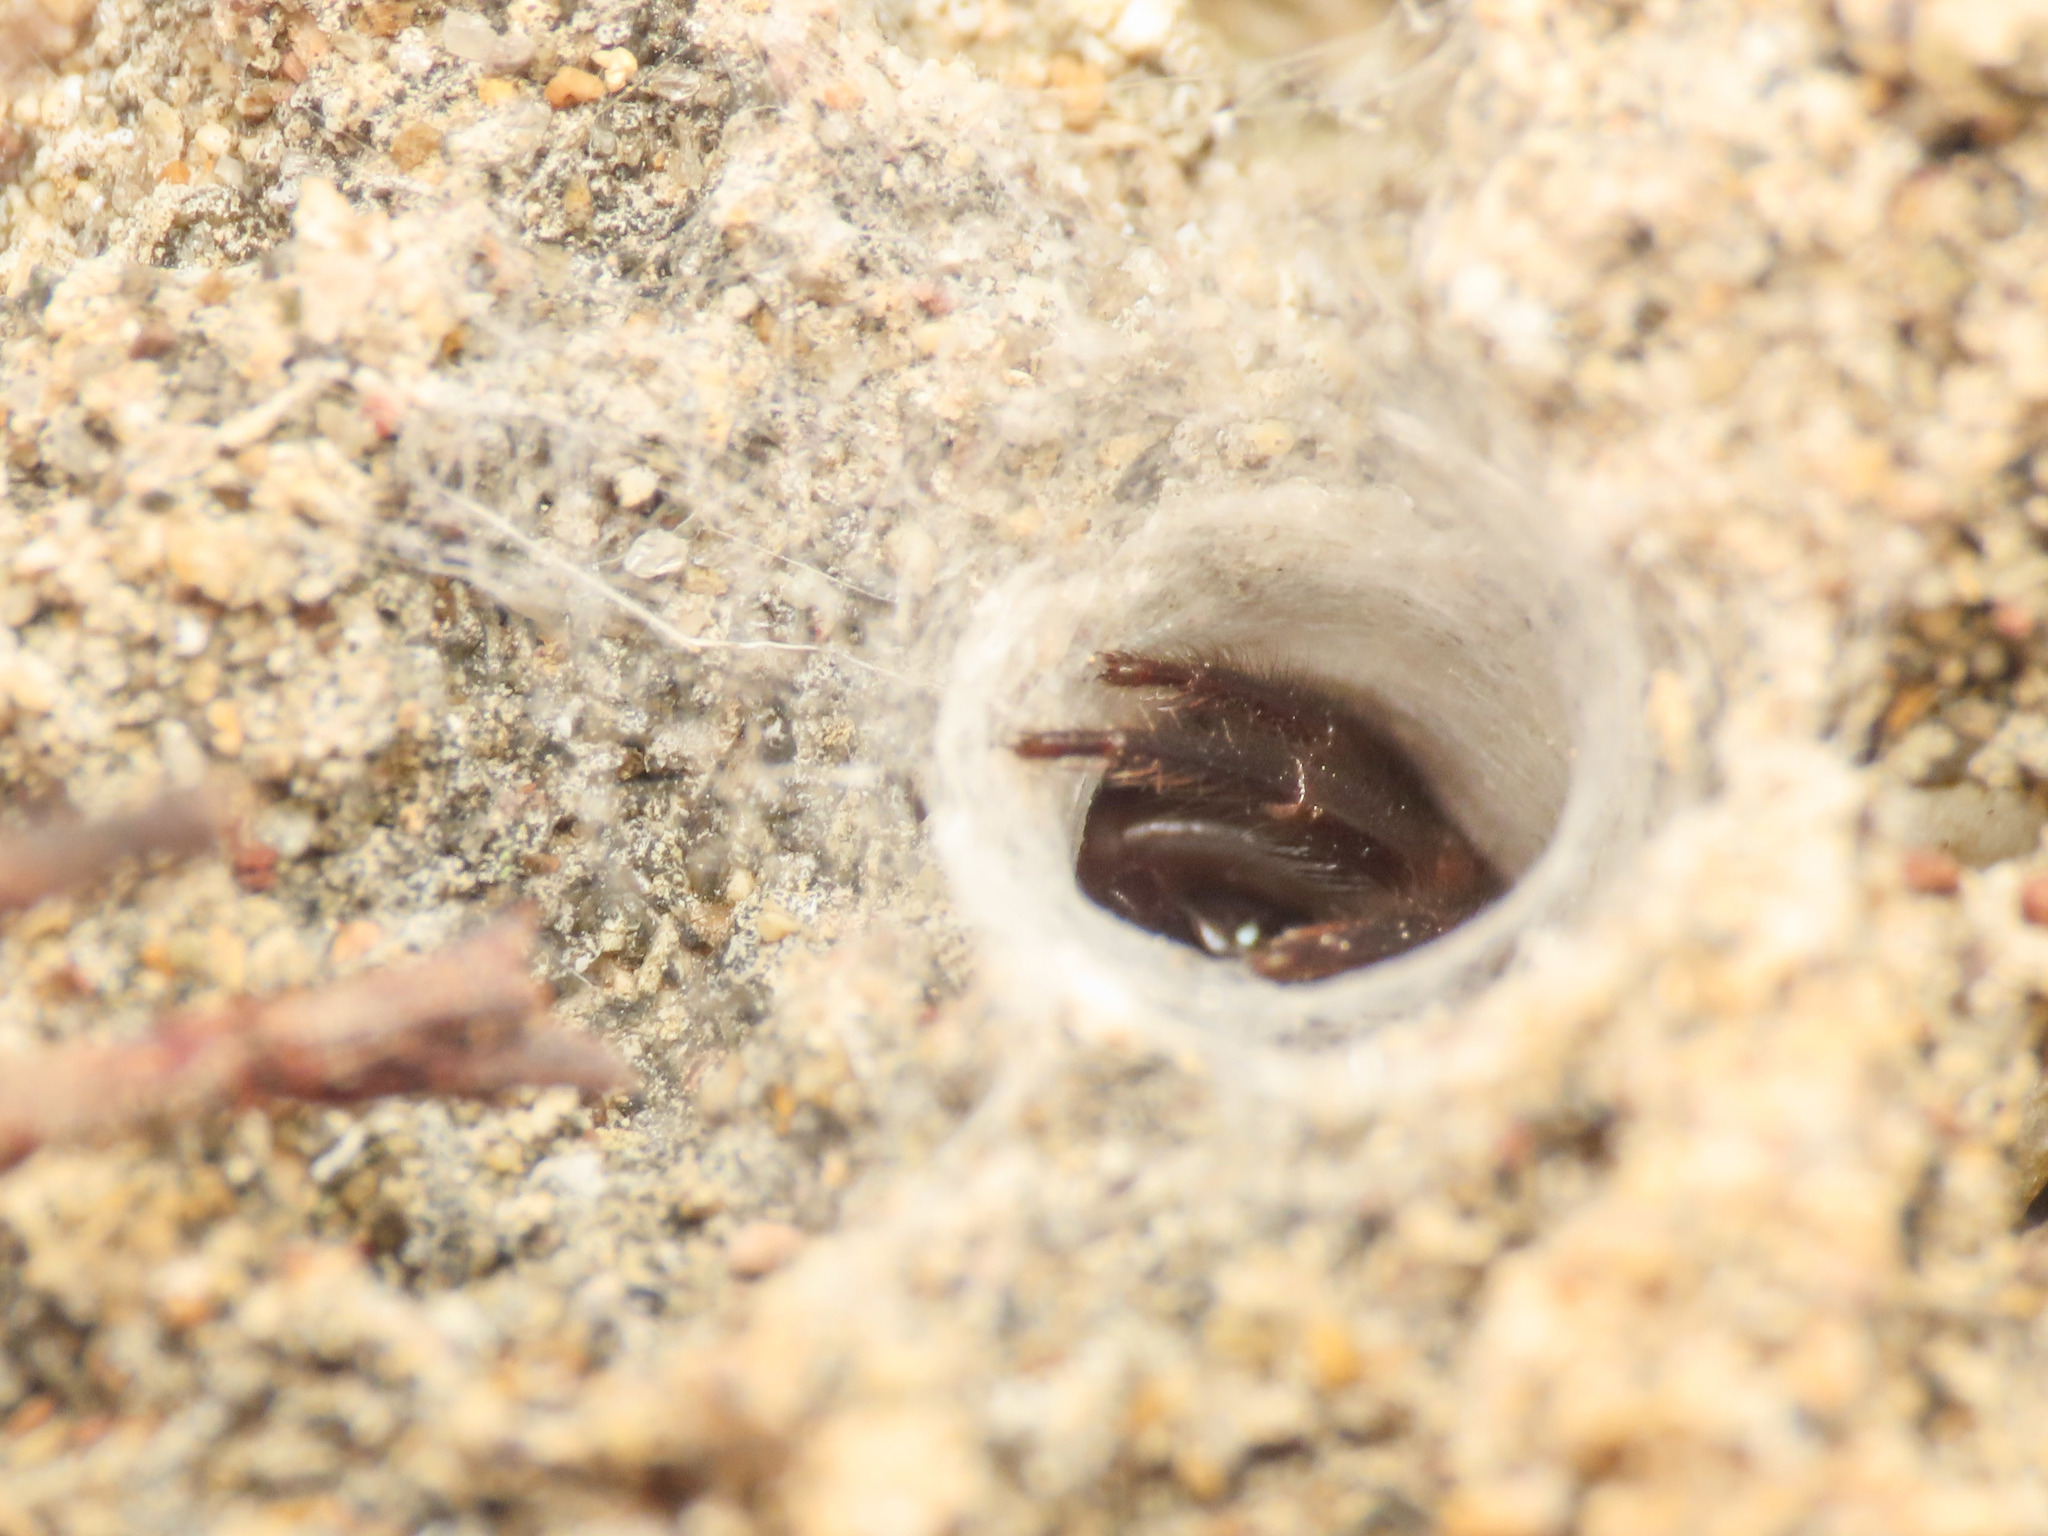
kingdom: Animalia
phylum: Arthropoda
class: Arachnida
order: Araneae
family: Segestriidae
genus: Ariadna
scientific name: Ariadna brignolii
